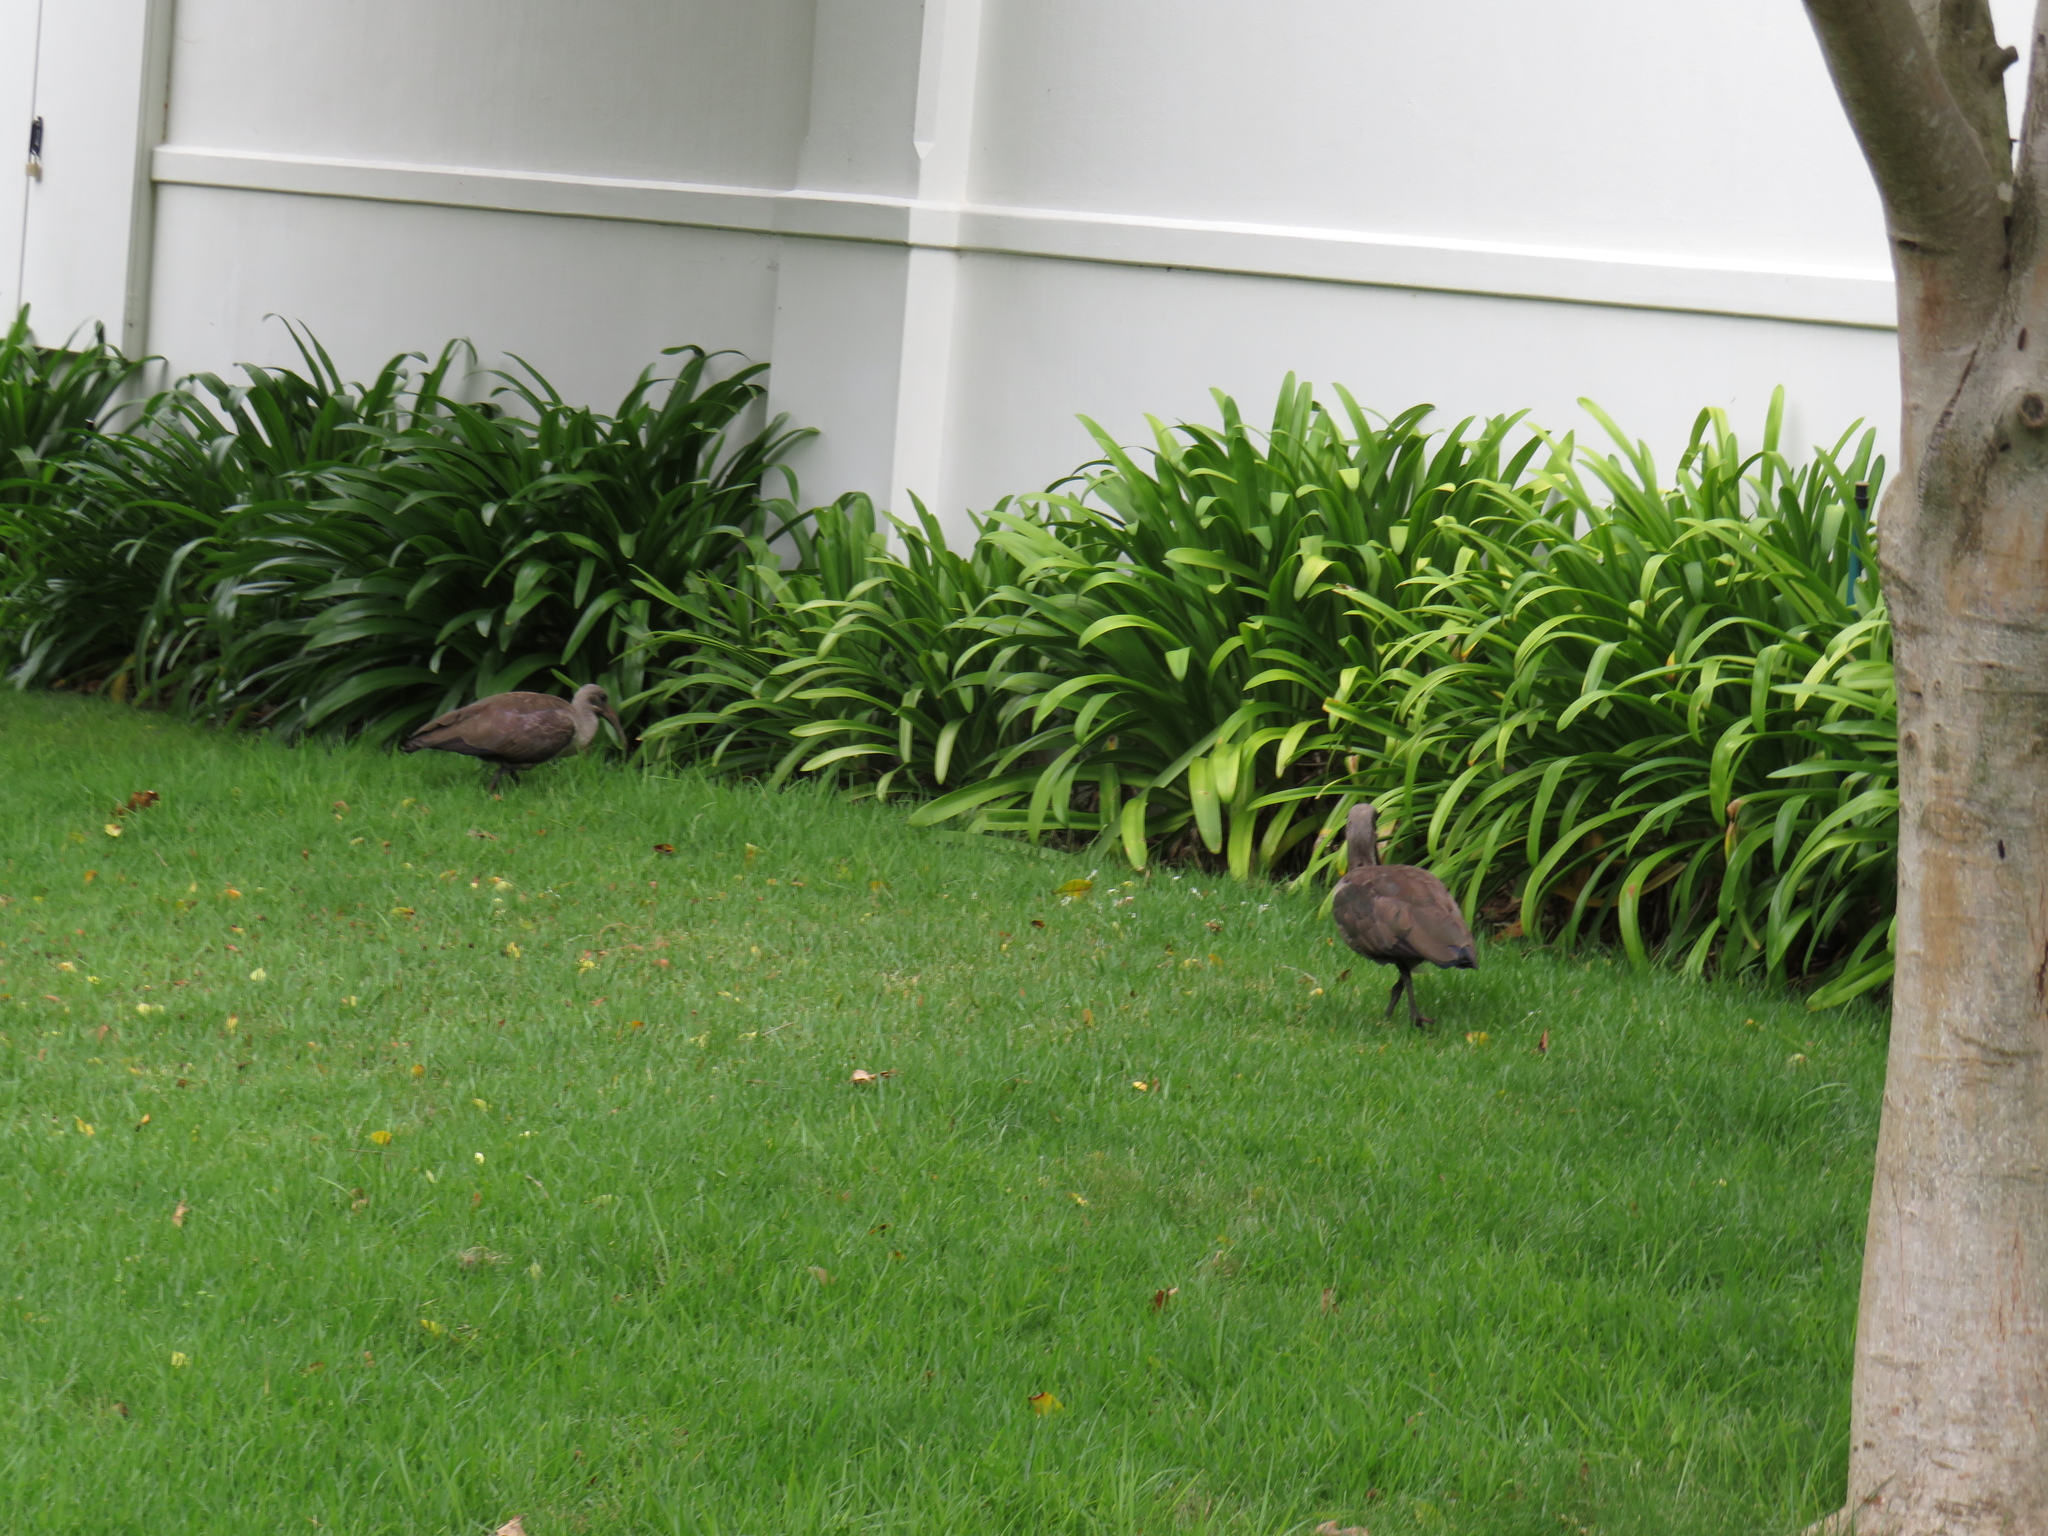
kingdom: Animalia
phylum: Chordata
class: Aves
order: Pelecaniformes
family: Threskiornithidae
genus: Bostrychia
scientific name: Bostrychia hagedash
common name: Hadada ibis
